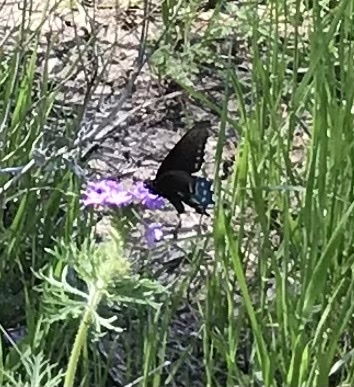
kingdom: Animalia
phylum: Arthropoda
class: Insecta
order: Lepidoptera
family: Papilionidae
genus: Battus
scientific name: Battus philenor
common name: Pipevine swallowtail
